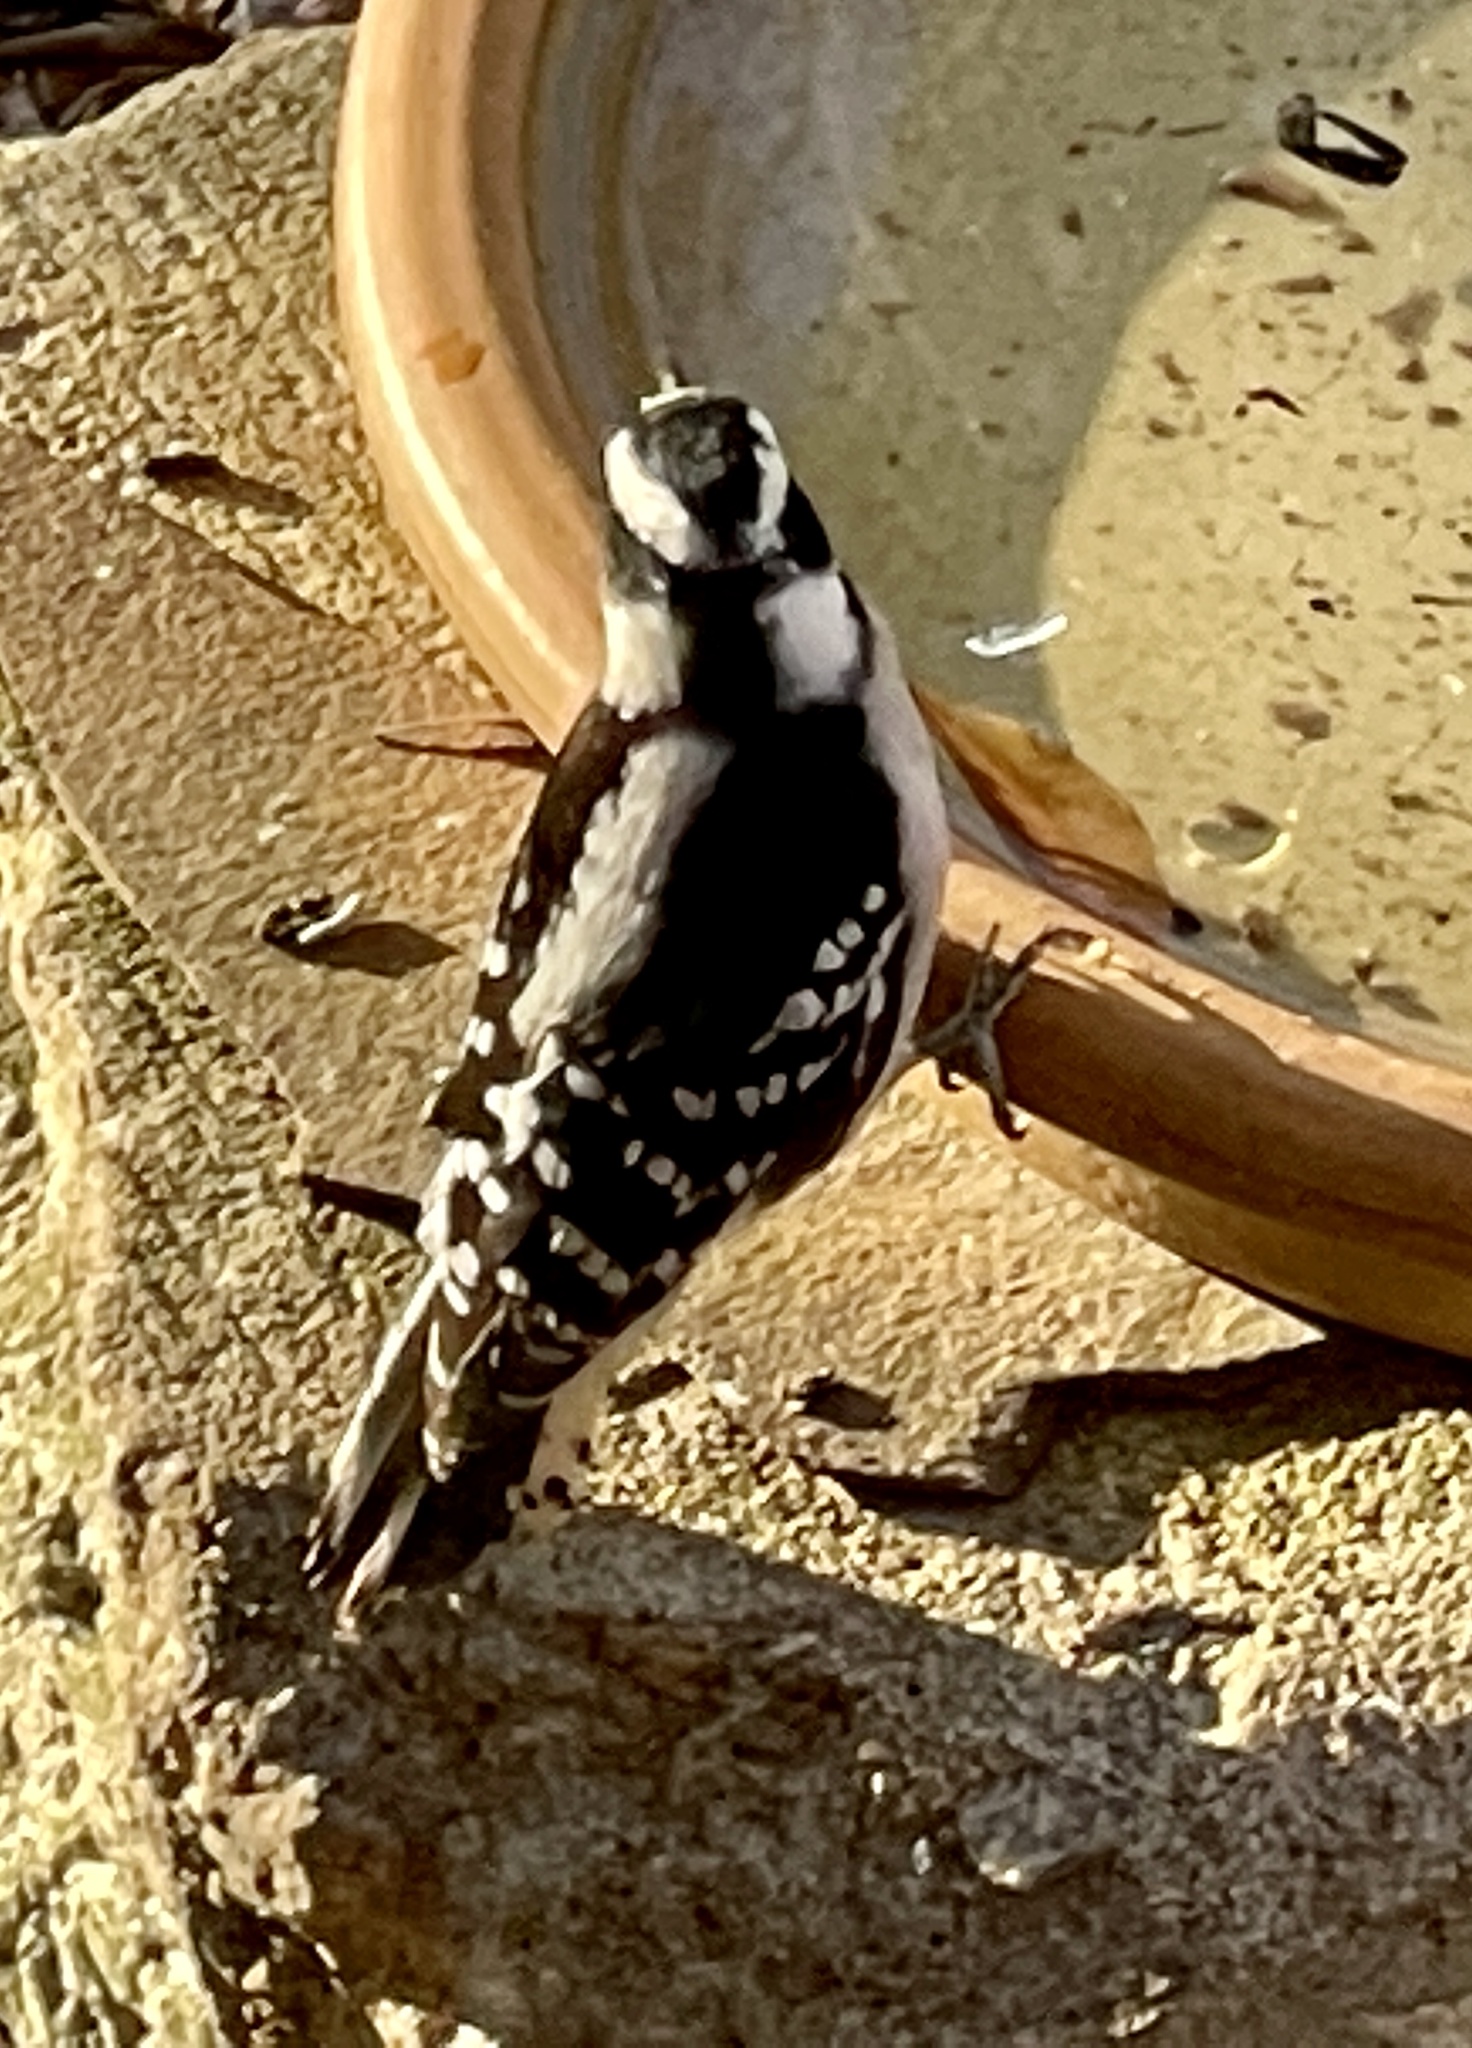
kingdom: Animalia
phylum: Chordata
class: Aves
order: Piciformes
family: Picidae
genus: Dryobates
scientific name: Dryobates pubescens
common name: Downy woodpecker
